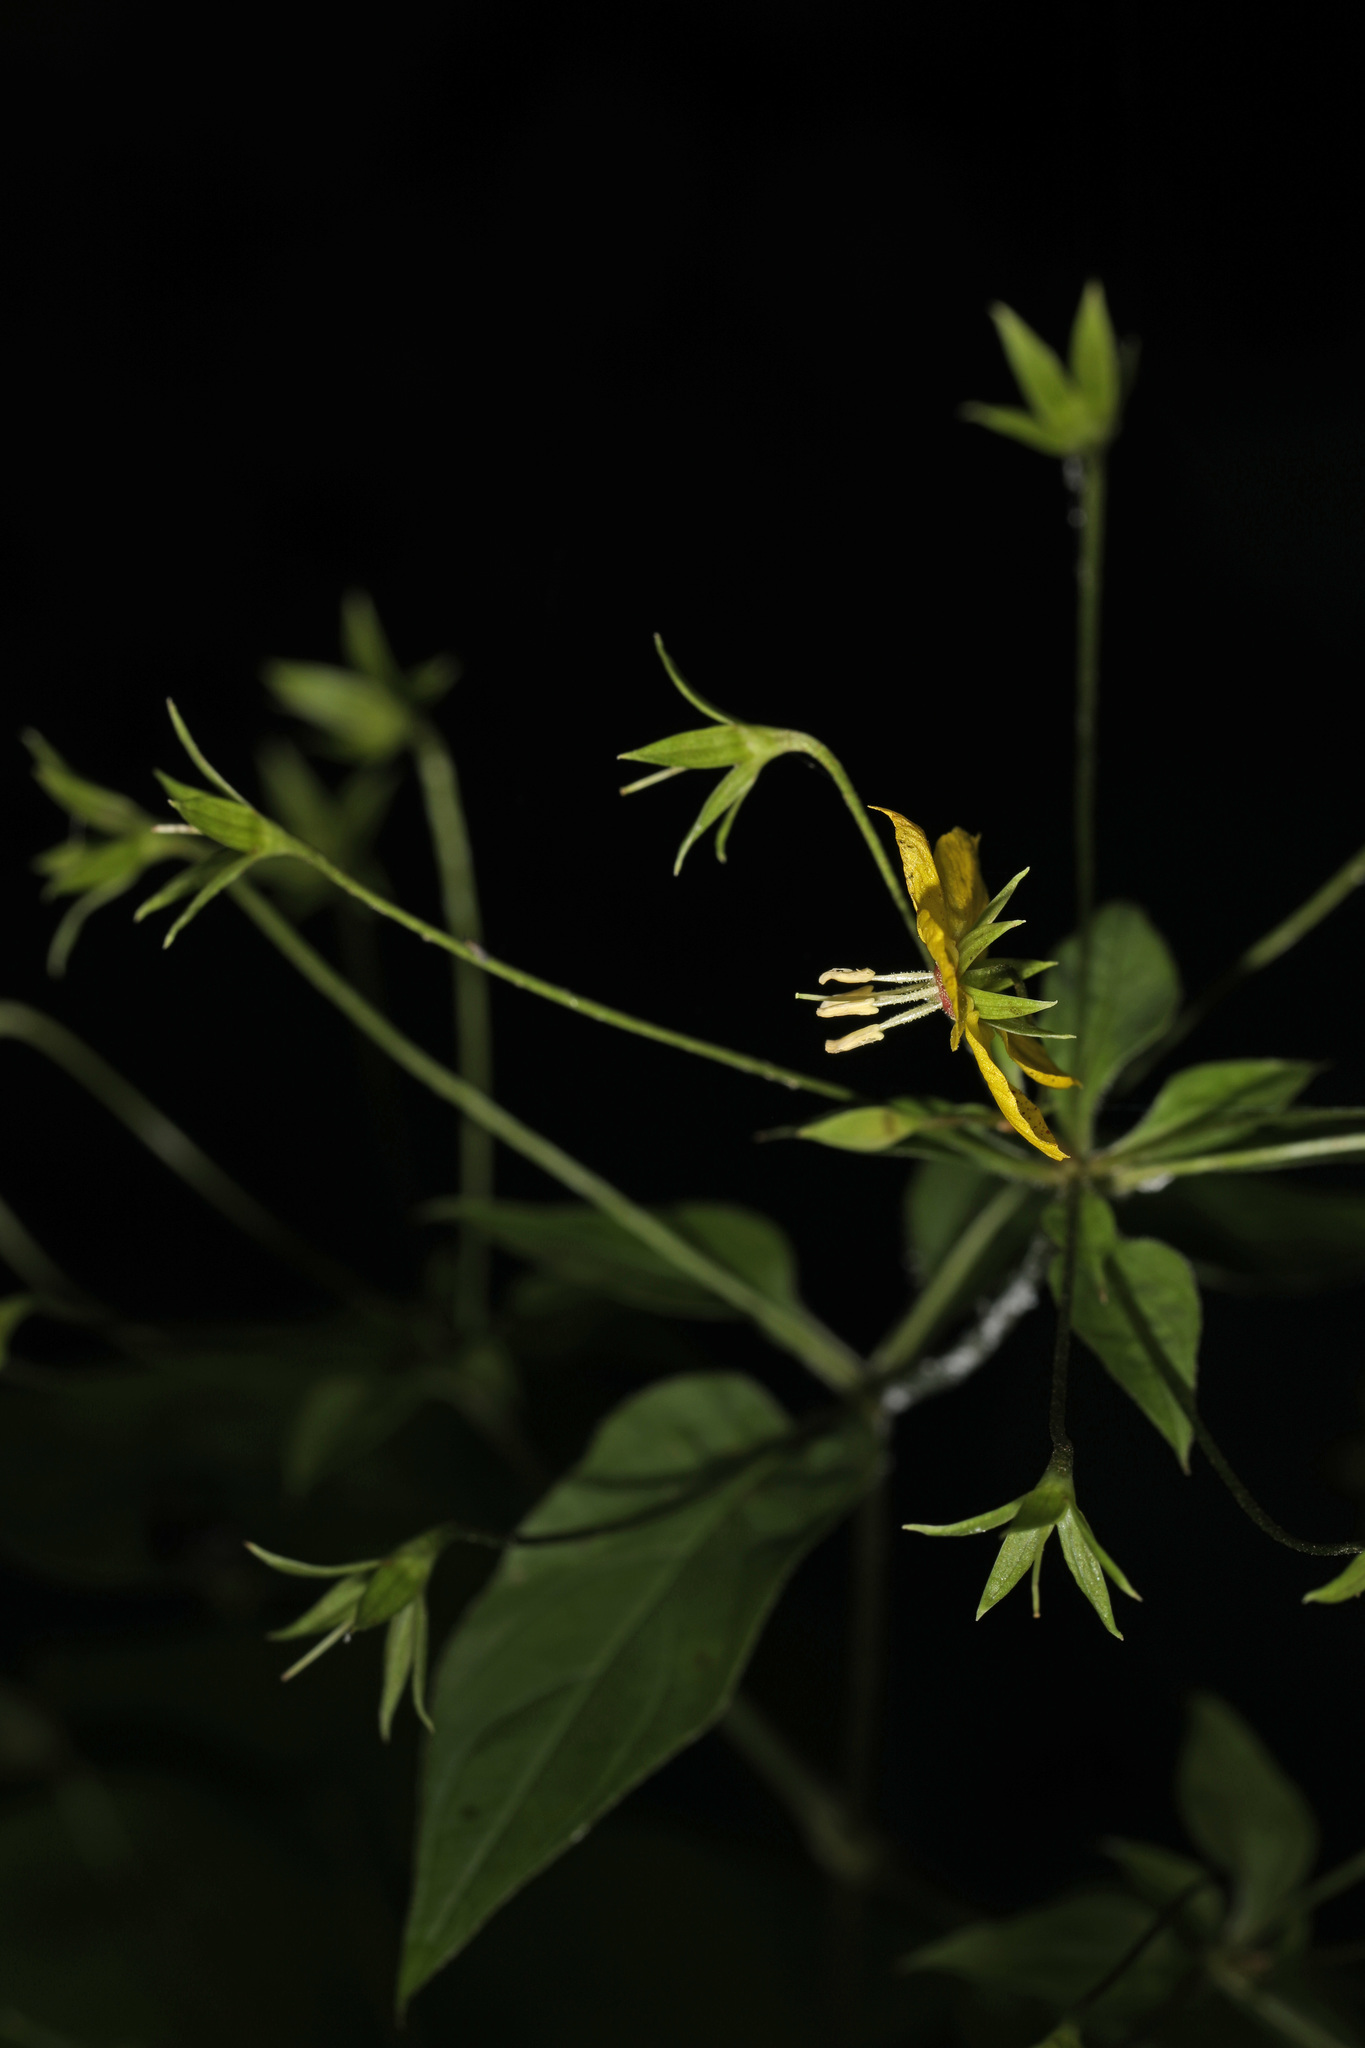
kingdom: Plantae
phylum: Tracheophyta
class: Magnoliopsida
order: Ericales
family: Primulaceae
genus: Lysimachia
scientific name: Lysimachia ciliata
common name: Fringed loosestrife
